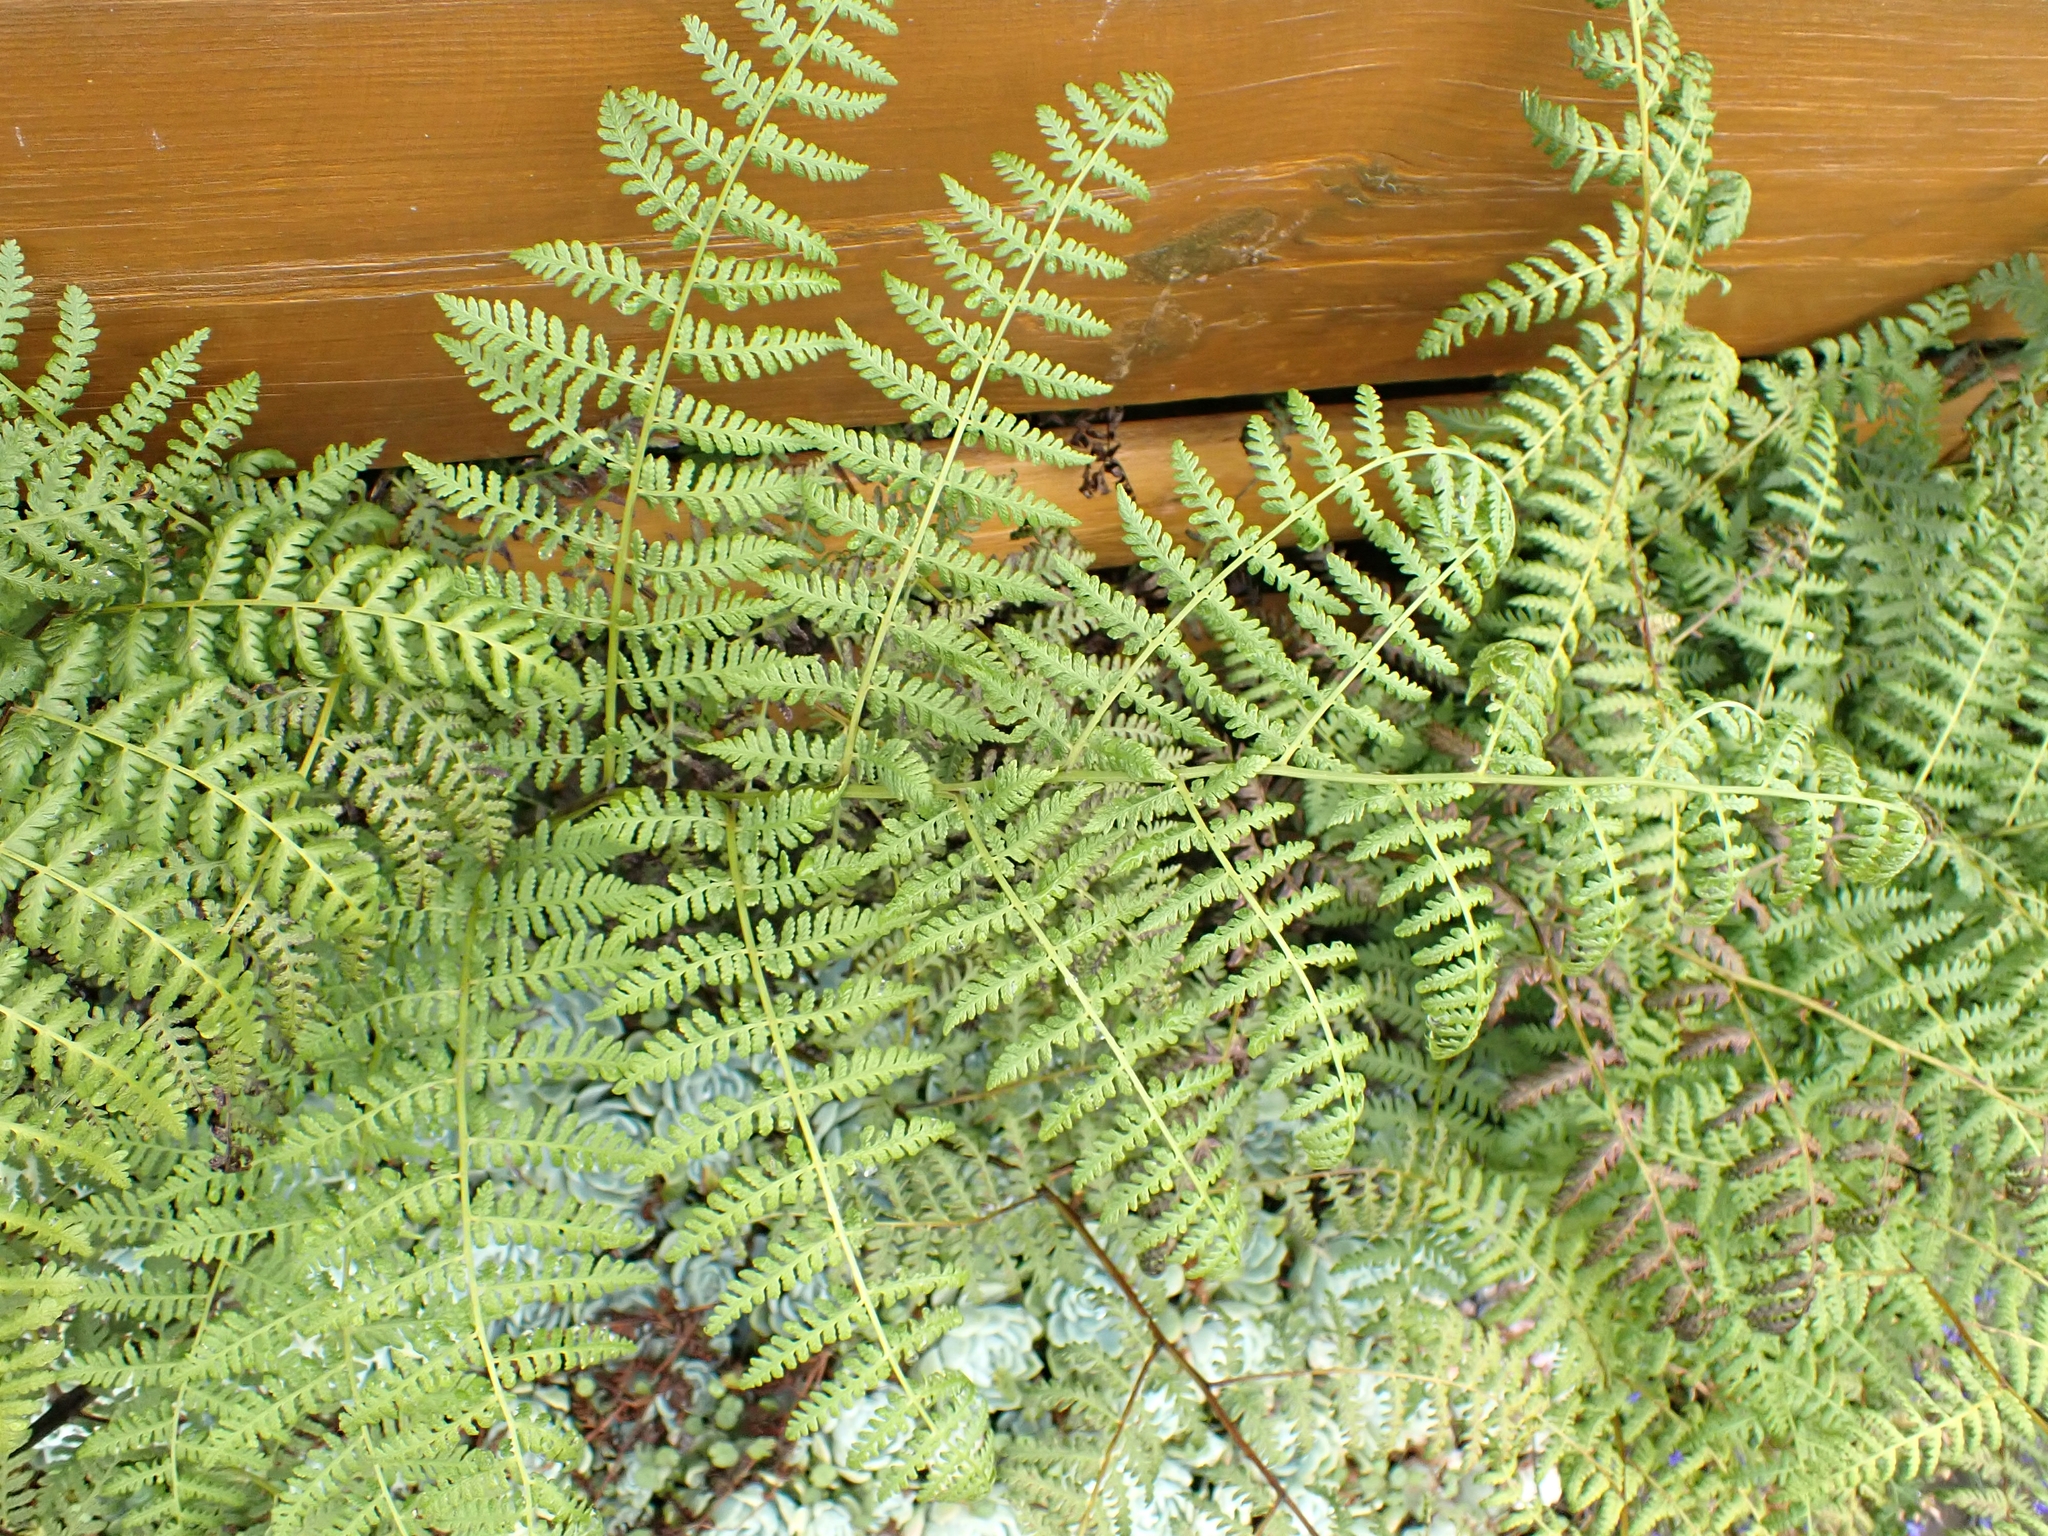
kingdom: Plantae
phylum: Tracheophyta
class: Polypodiopsida
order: Polypodiales
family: Dennstaedtiaceae
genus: Hypolepis
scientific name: Hypolepis ambigua
